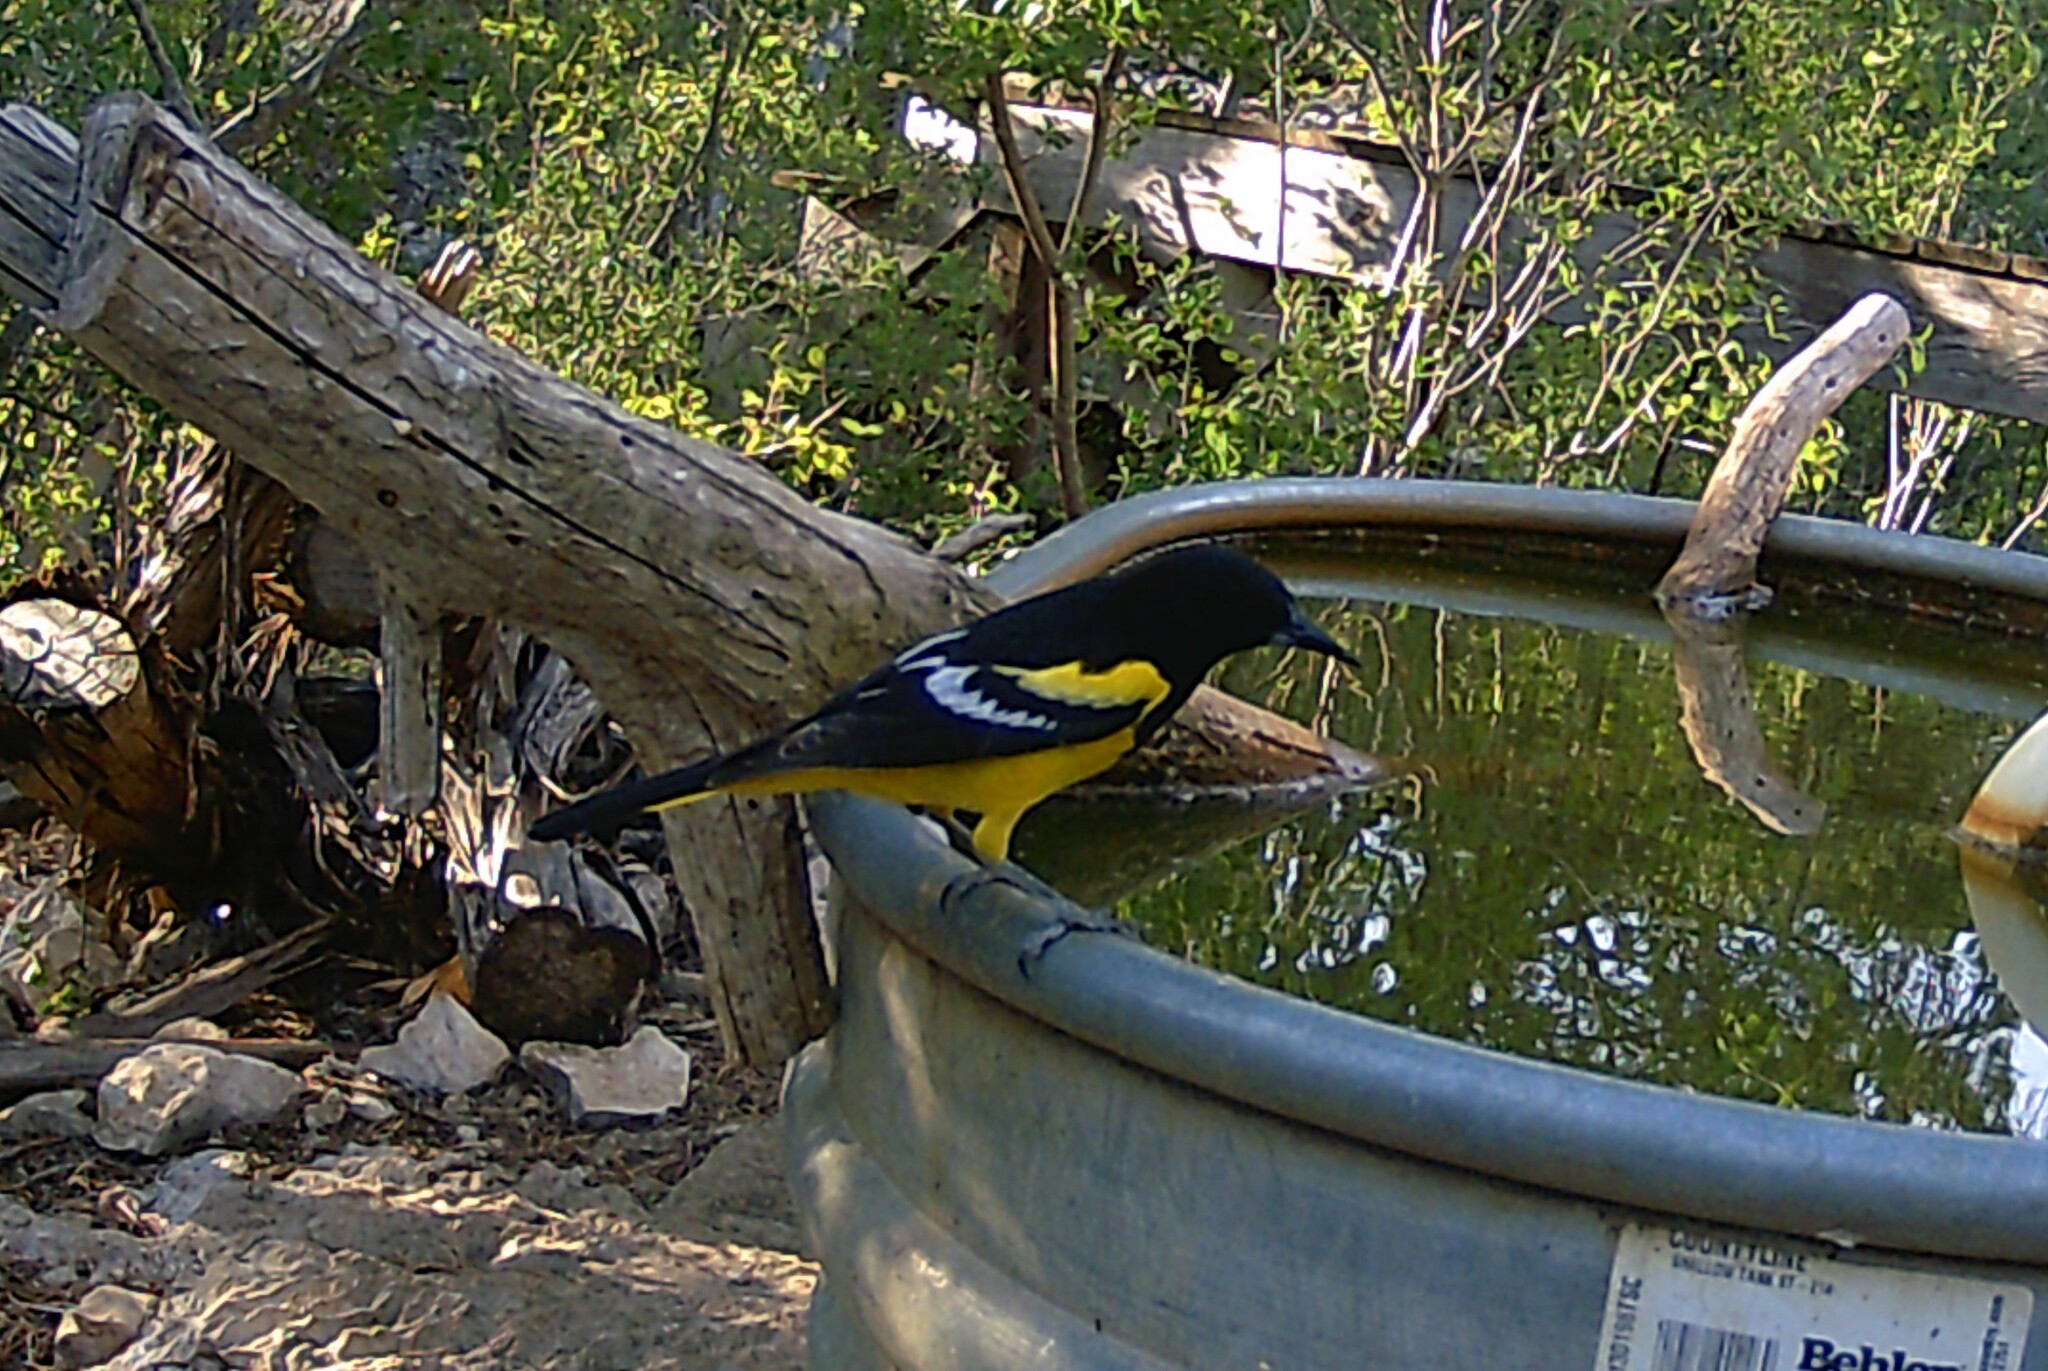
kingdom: Animalia
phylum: Chordata
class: Aves
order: Passeriformes
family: Icteridae
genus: Icterus
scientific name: Icterus parisorum
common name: Scott's oriole
